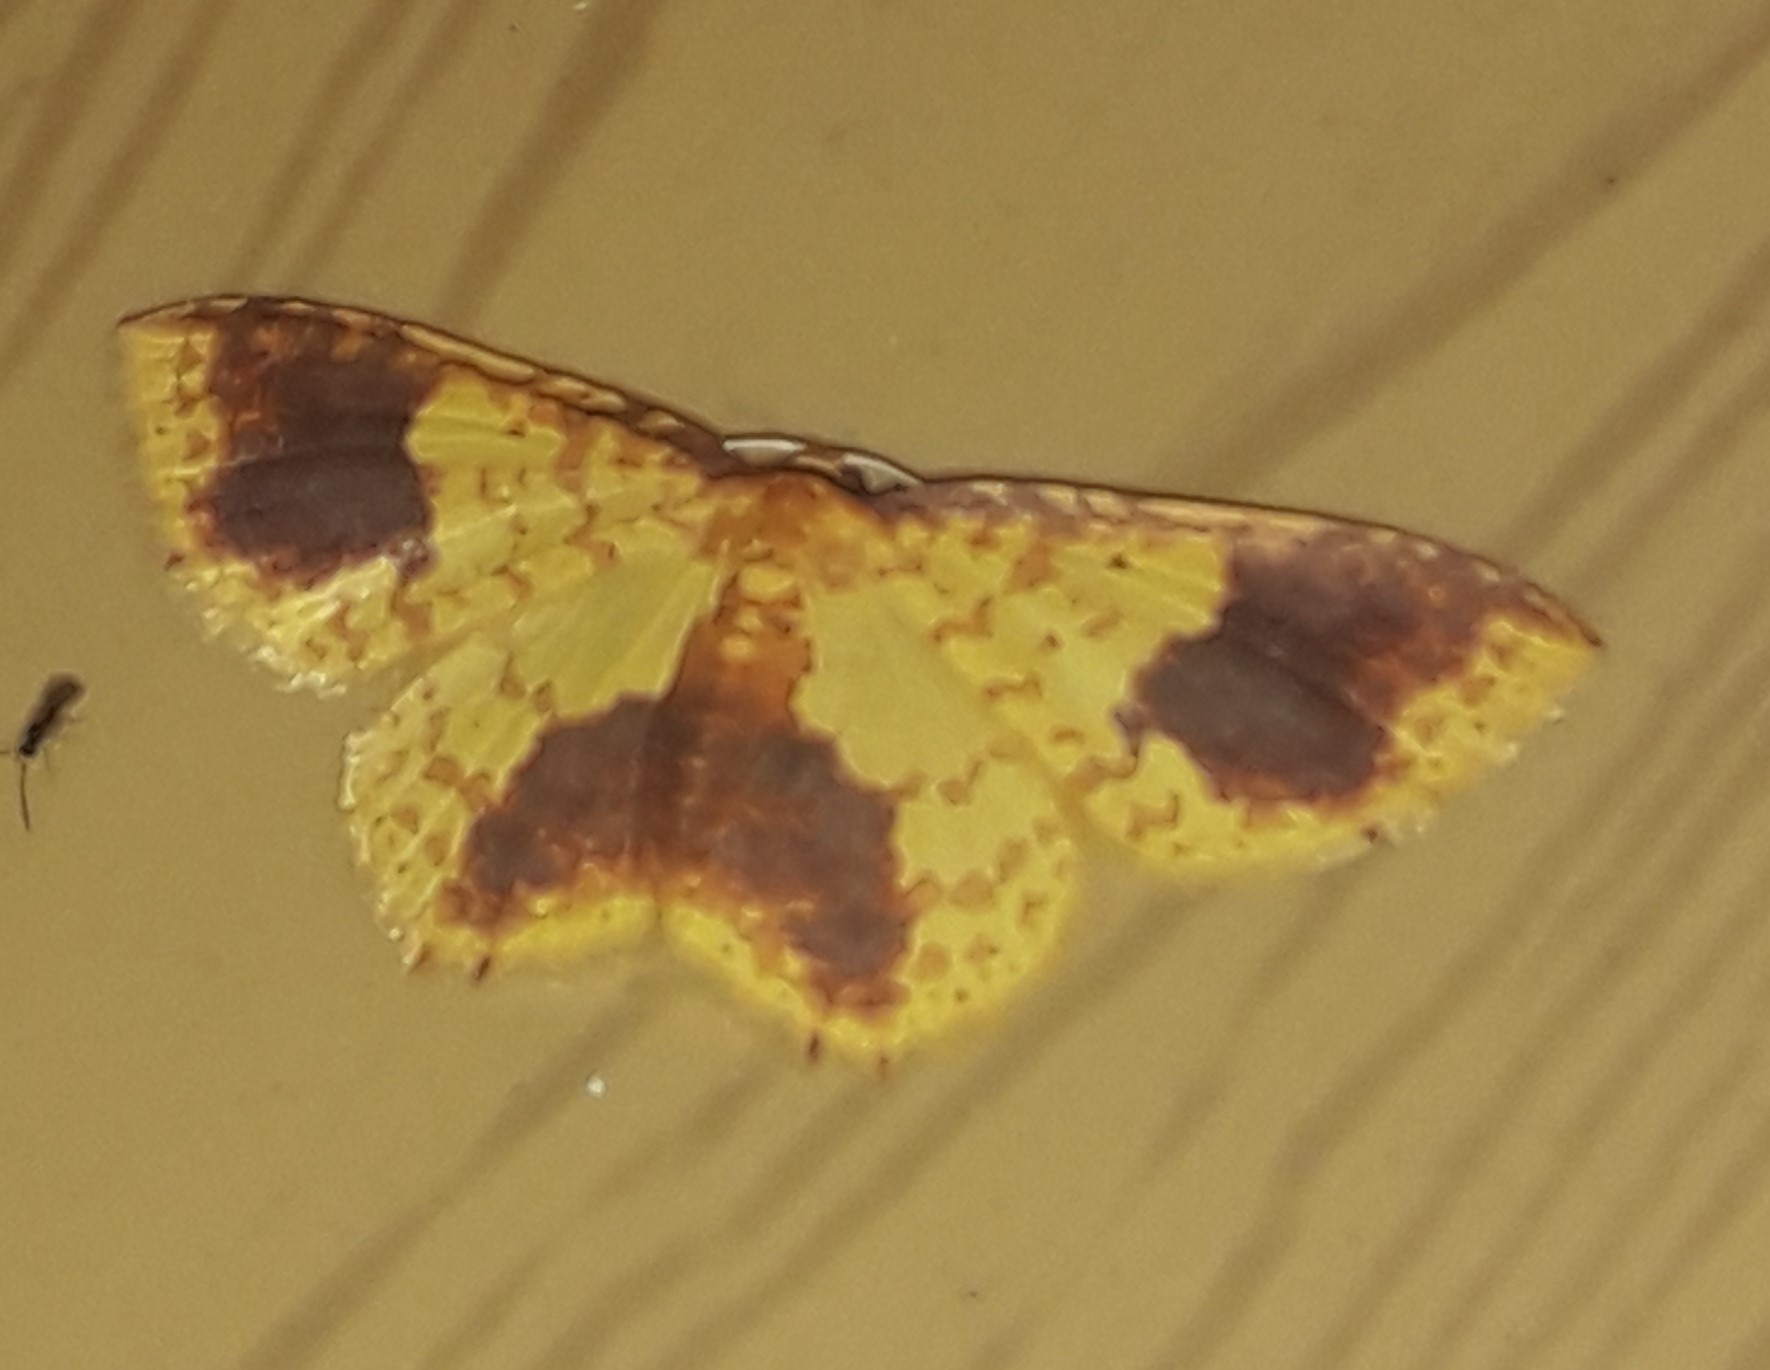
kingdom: Animalia
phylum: Arthropoda
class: Insecta
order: Lepidoptera
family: Geometridae
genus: Eois
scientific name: Eois dibapha
